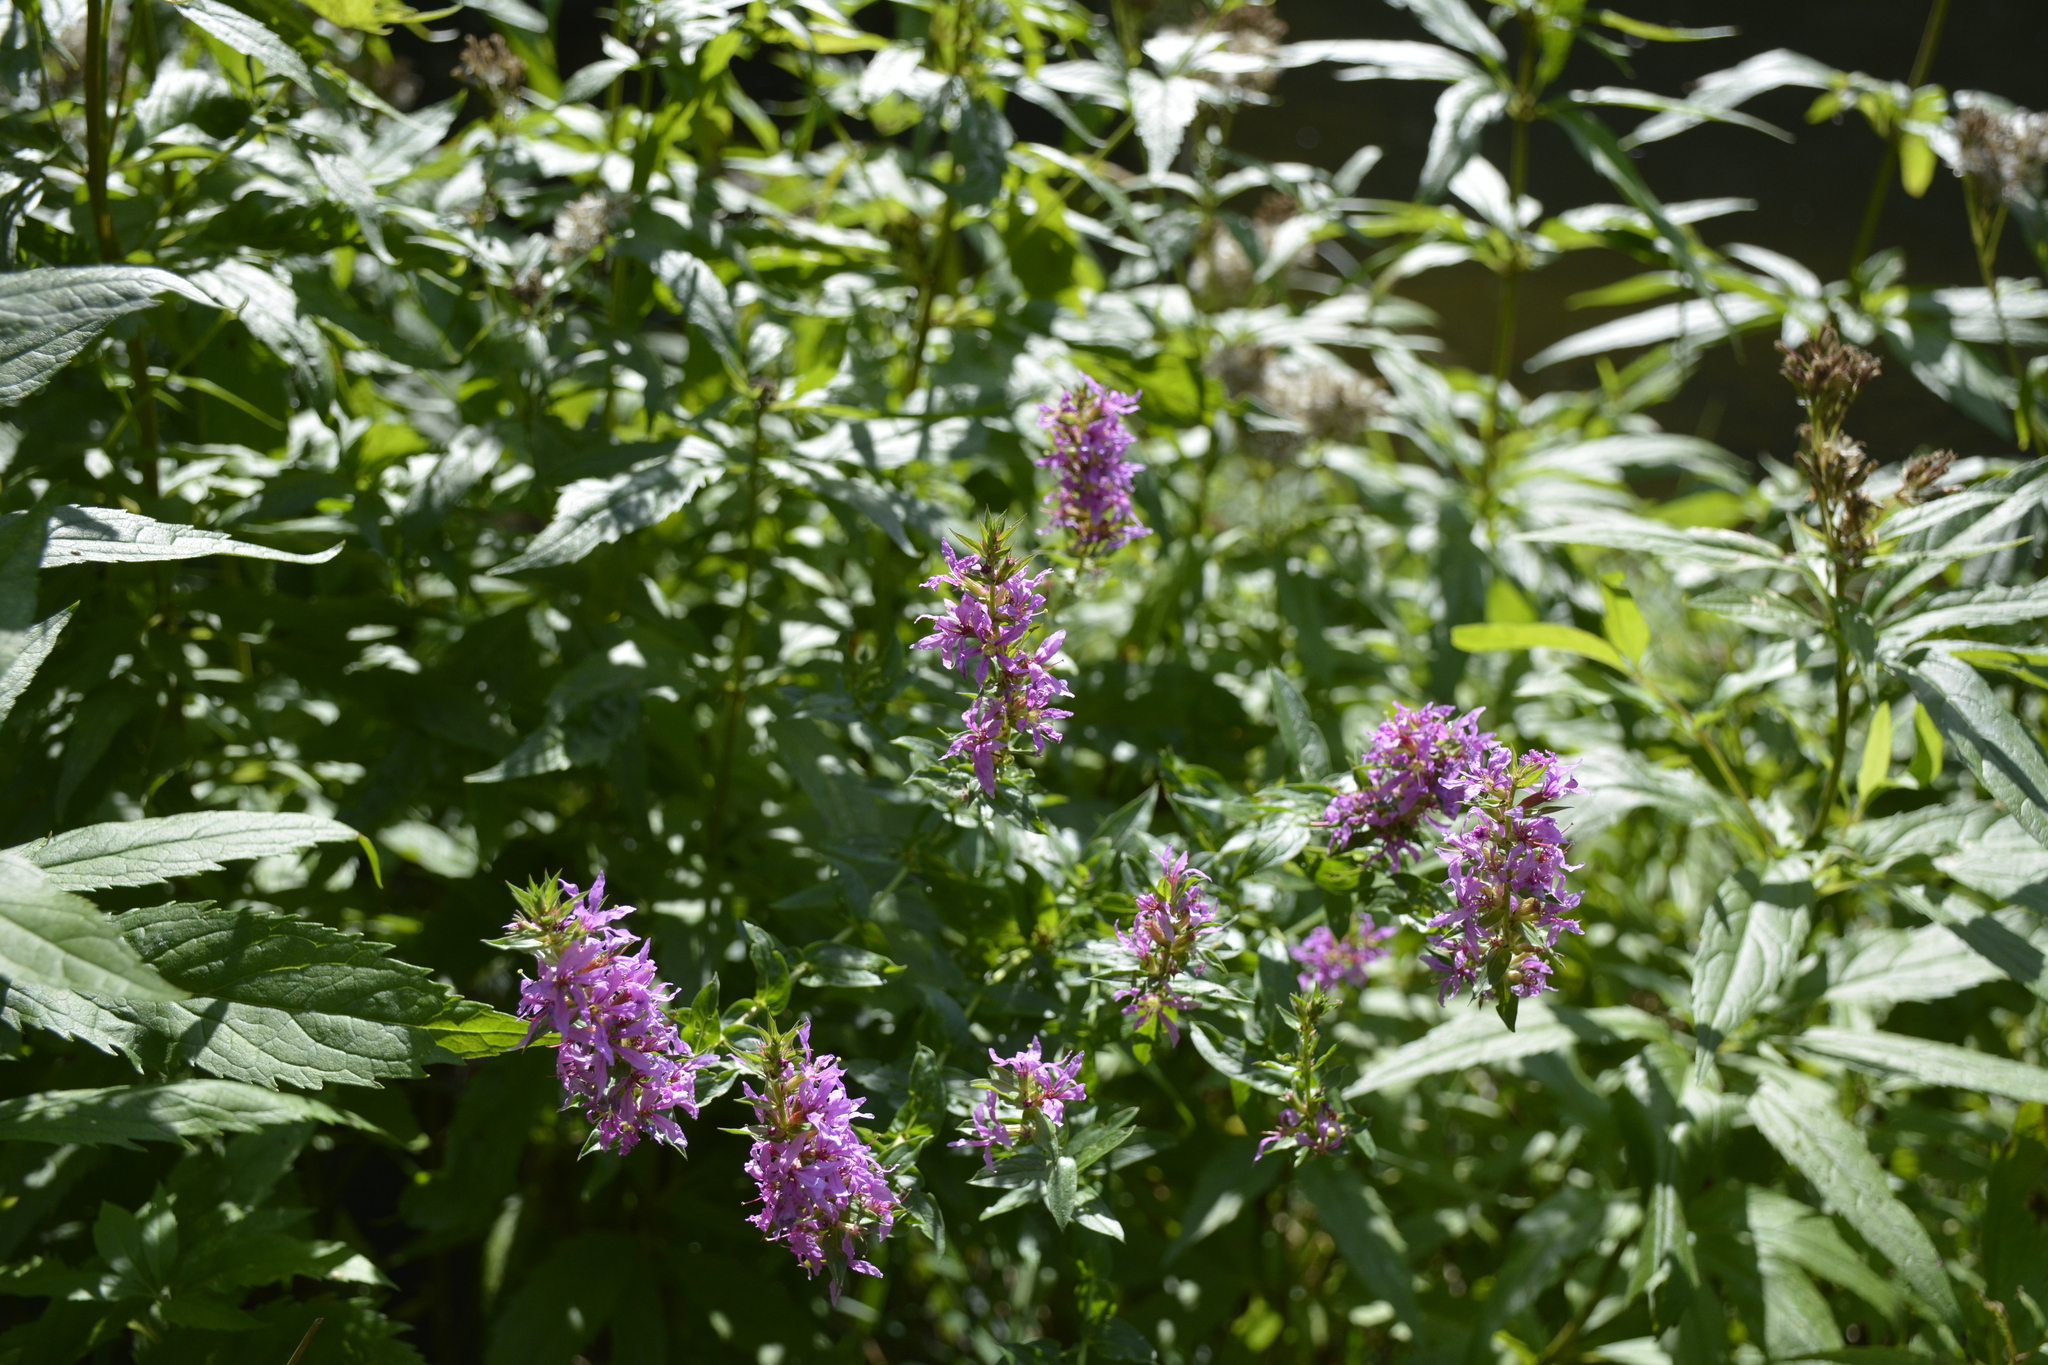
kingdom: Plantae
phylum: Tracheophyta
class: Magnoliopsida
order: Myrtales
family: Lythraceae
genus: Lythrum
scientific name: Lythrum salicaria
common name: Purple loosestrife
